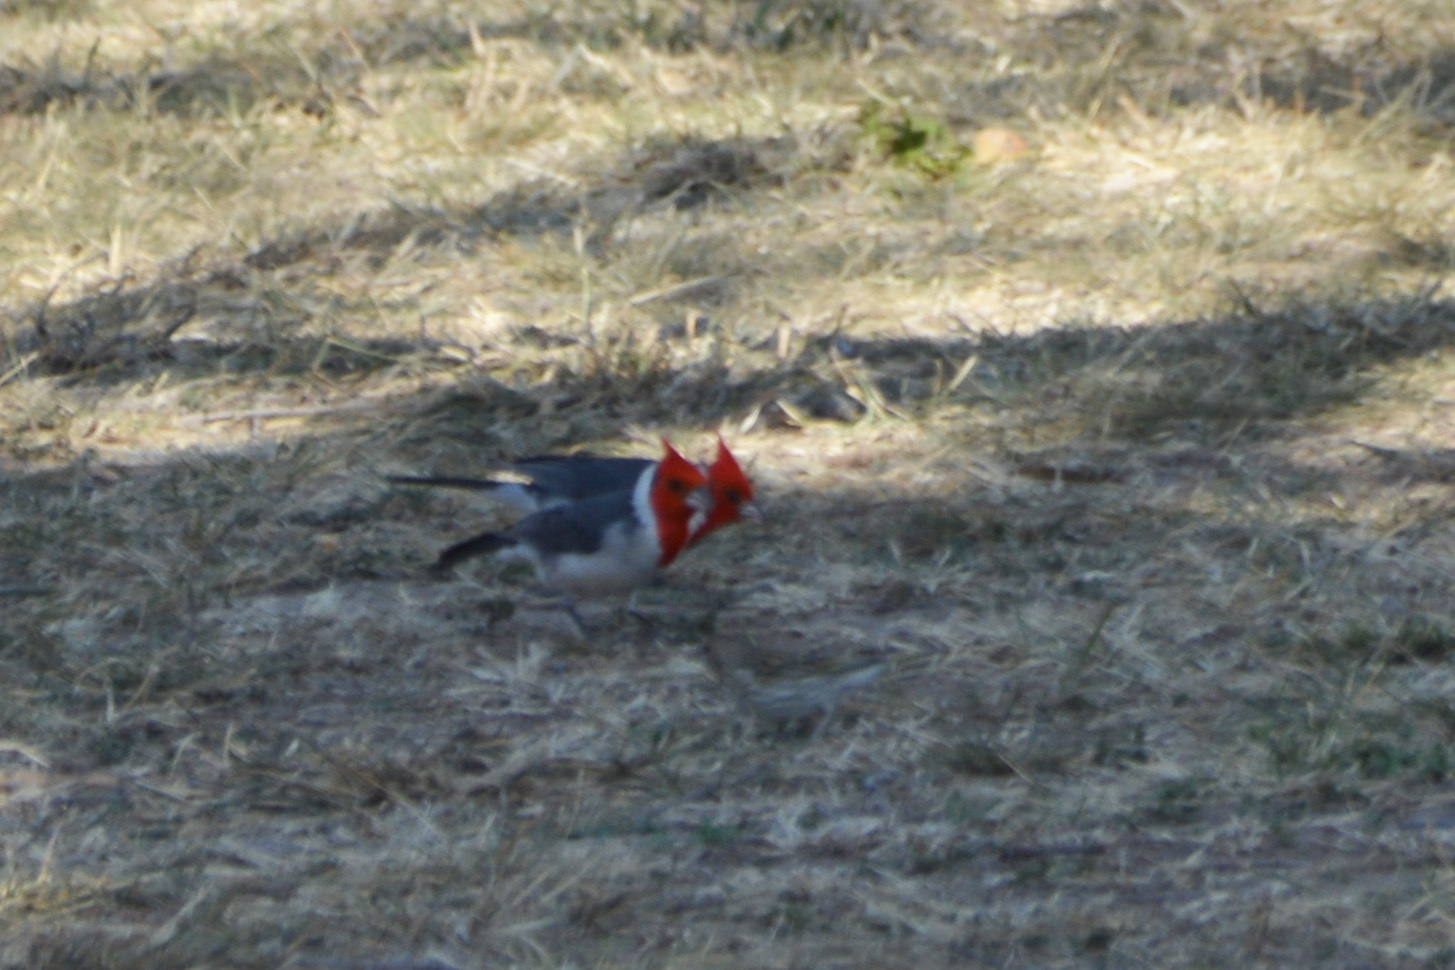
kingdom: Animalia
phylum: Chordata
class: Aves
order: Passeriformes
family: Thraupidae
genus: Paroaria
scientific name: Paroaria coronata
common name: Red-crested cardinal
